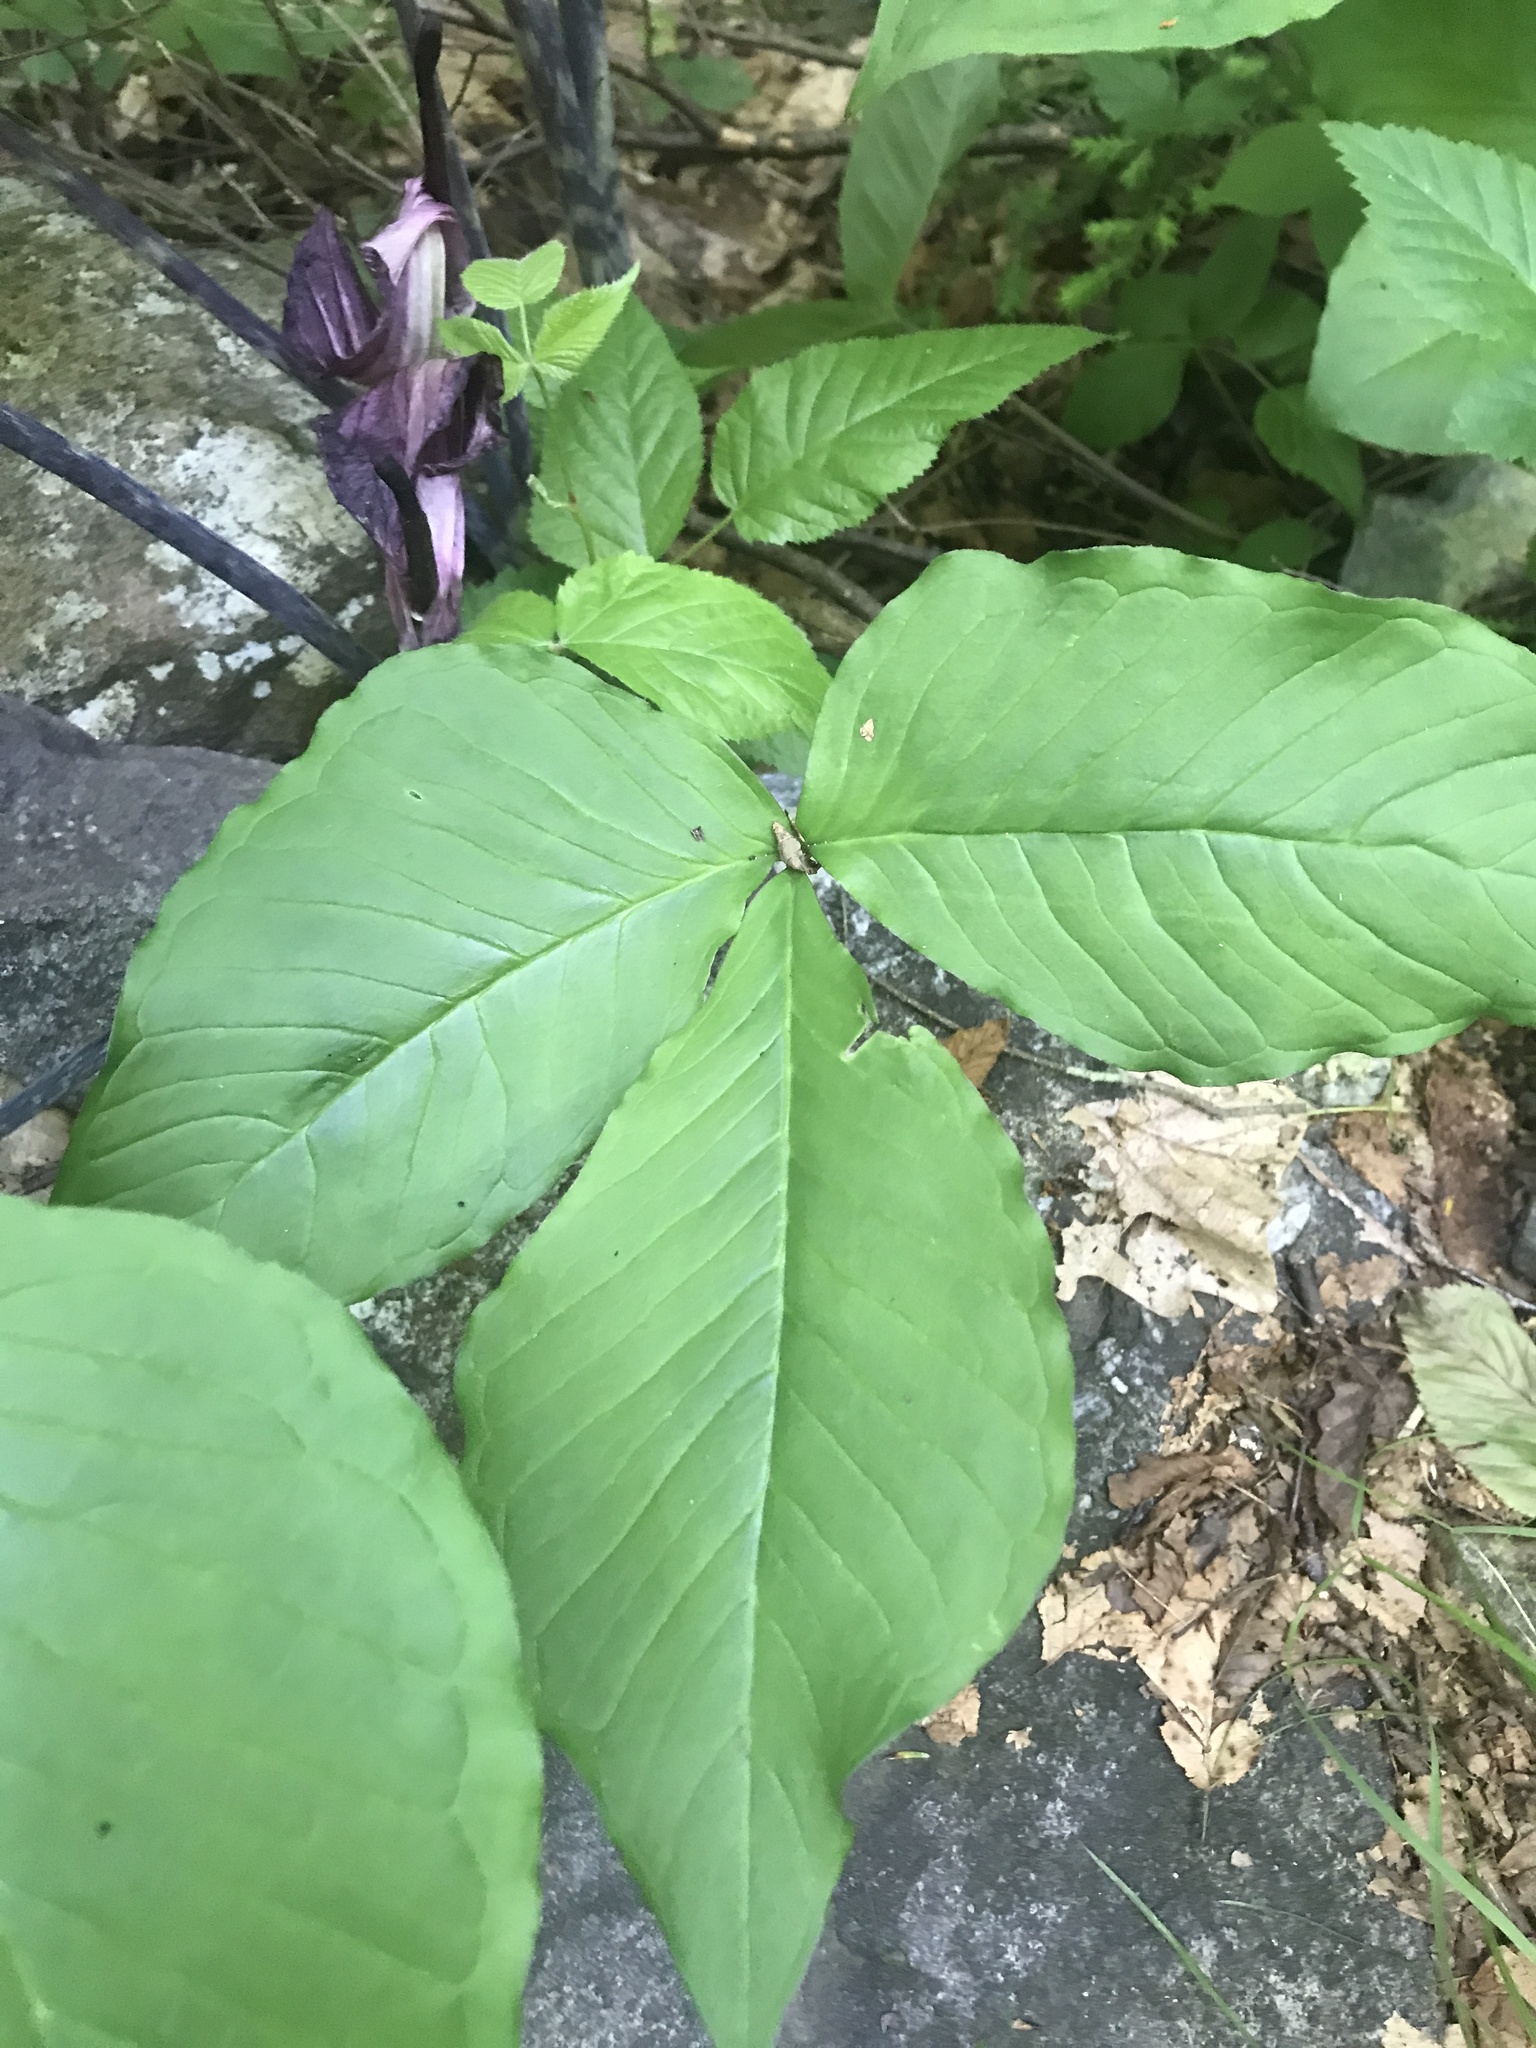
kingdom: Plantae
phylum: Tracheophyta
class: Liliopsida
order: Alismatales
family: Araceae
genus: Arisaema
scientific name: Arisaema triphyllum
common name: Jack-in-the-pulpit
